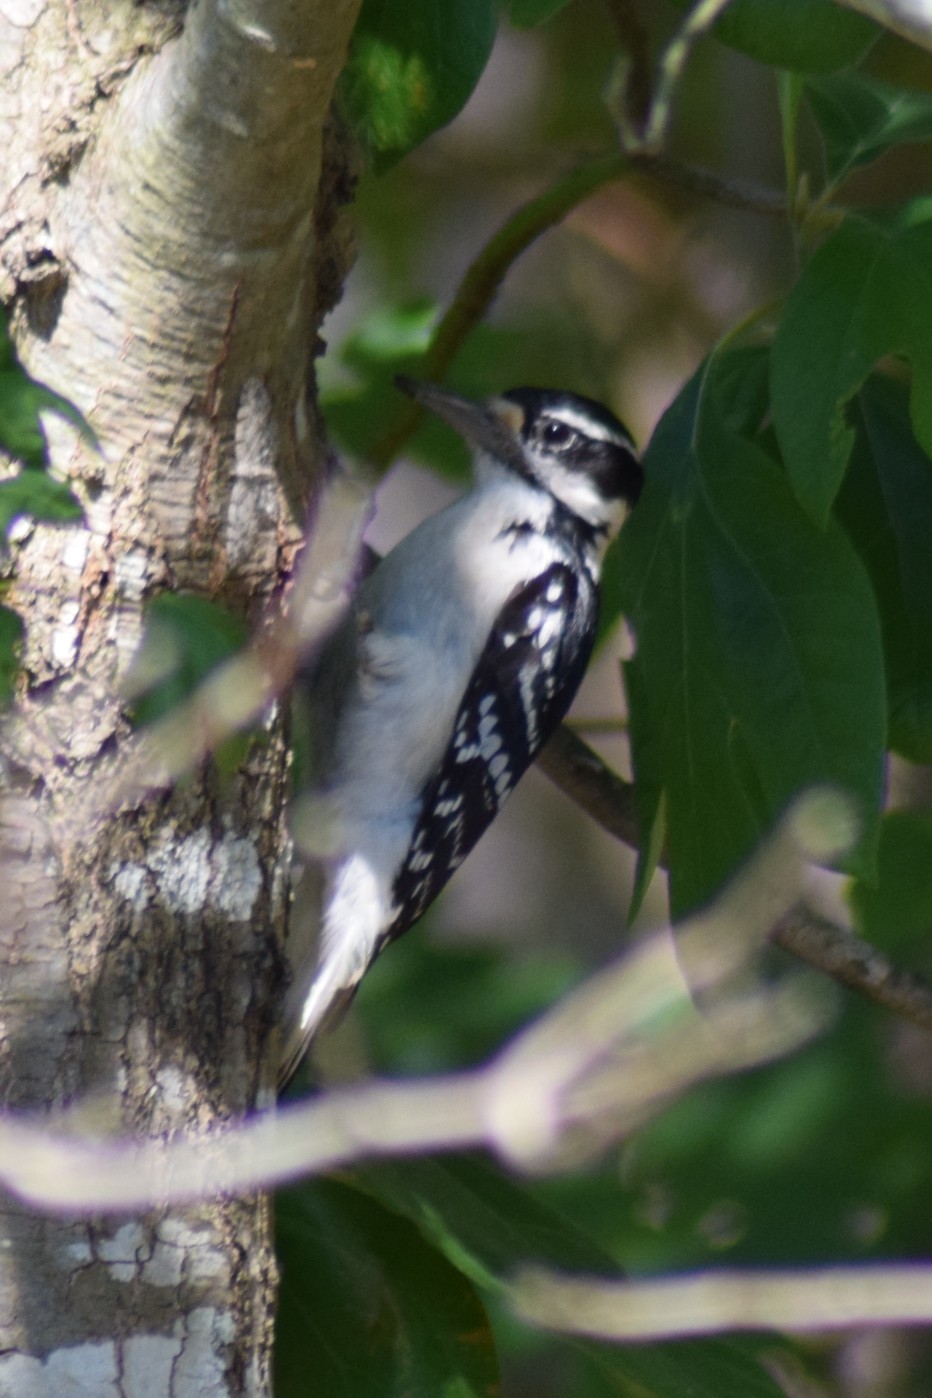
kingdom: Animalia
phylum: Chordata
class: Aves
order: Piciformes
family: Picidae
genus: Leuconotopicus
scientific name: Leuconotopicus villosus
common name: Hairy woodpecker
